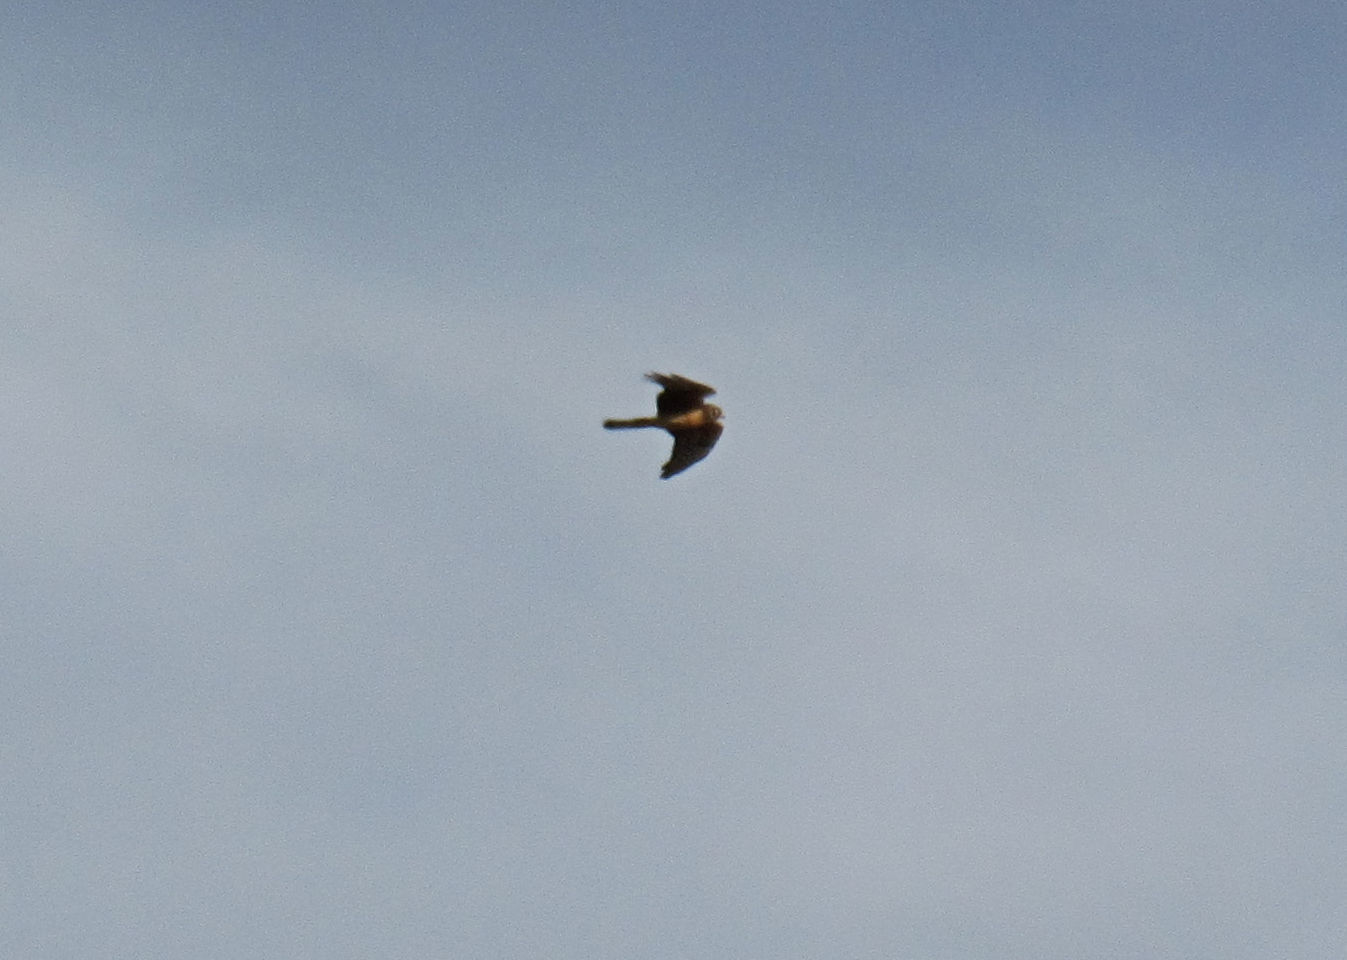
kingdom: Animalia
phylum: Chordata
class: Aves
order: Accipitriformes
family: Accipitridae
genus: Circus
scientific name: Circus cyaneus
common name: Hen harrier
